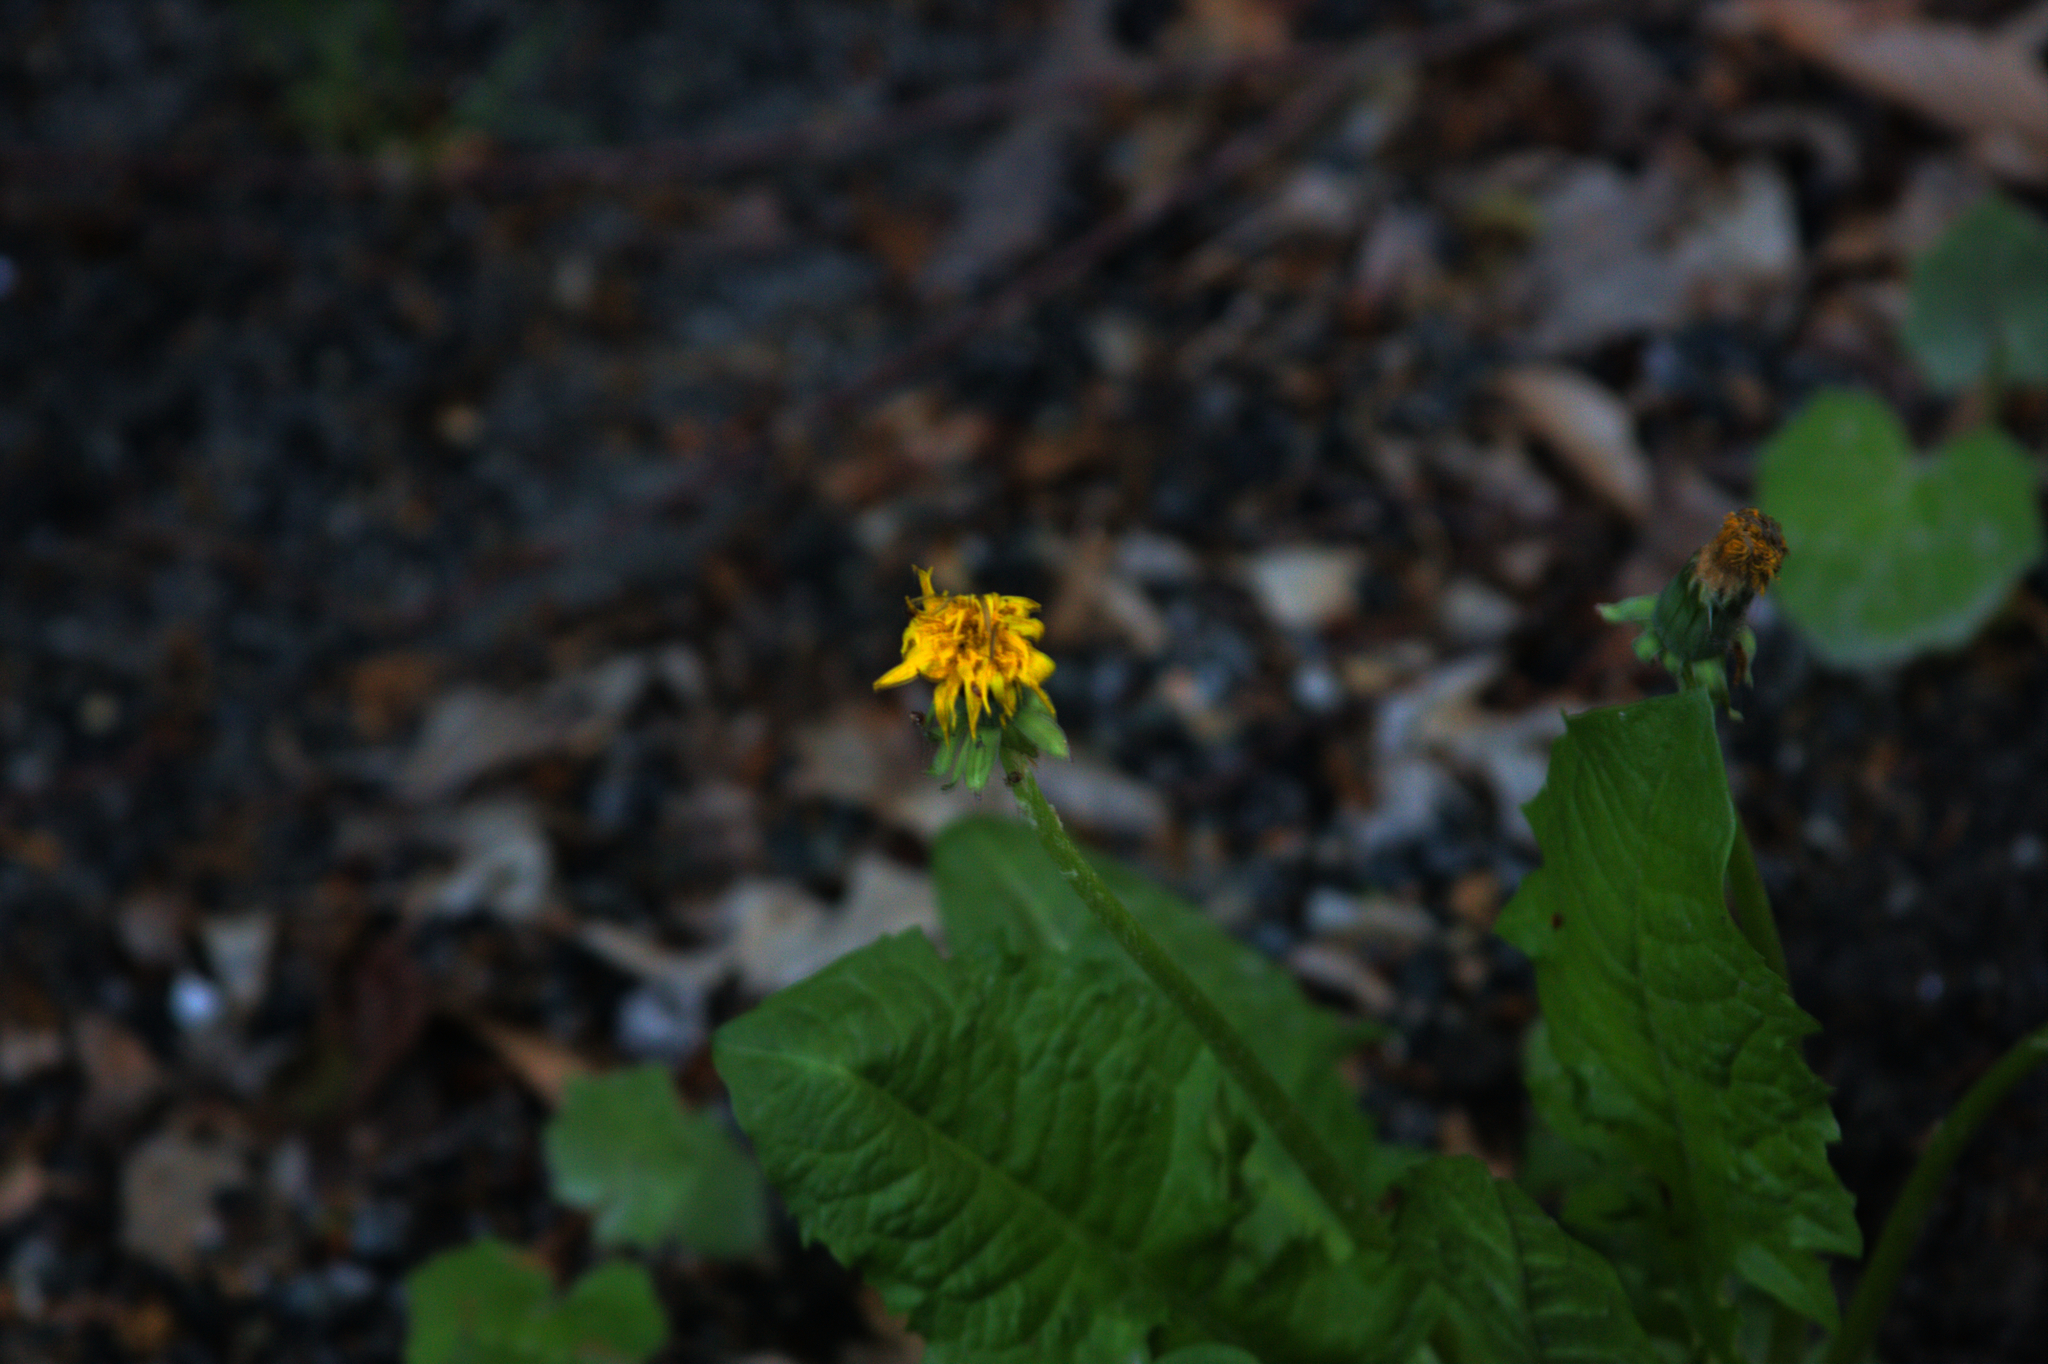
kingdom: Plantae
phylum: Tracheophyta
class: Magnoliopsida
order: Asterales
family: Asteraceae
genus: Taraxacum
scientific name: Taraxacum officinale
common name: Common dandelion
